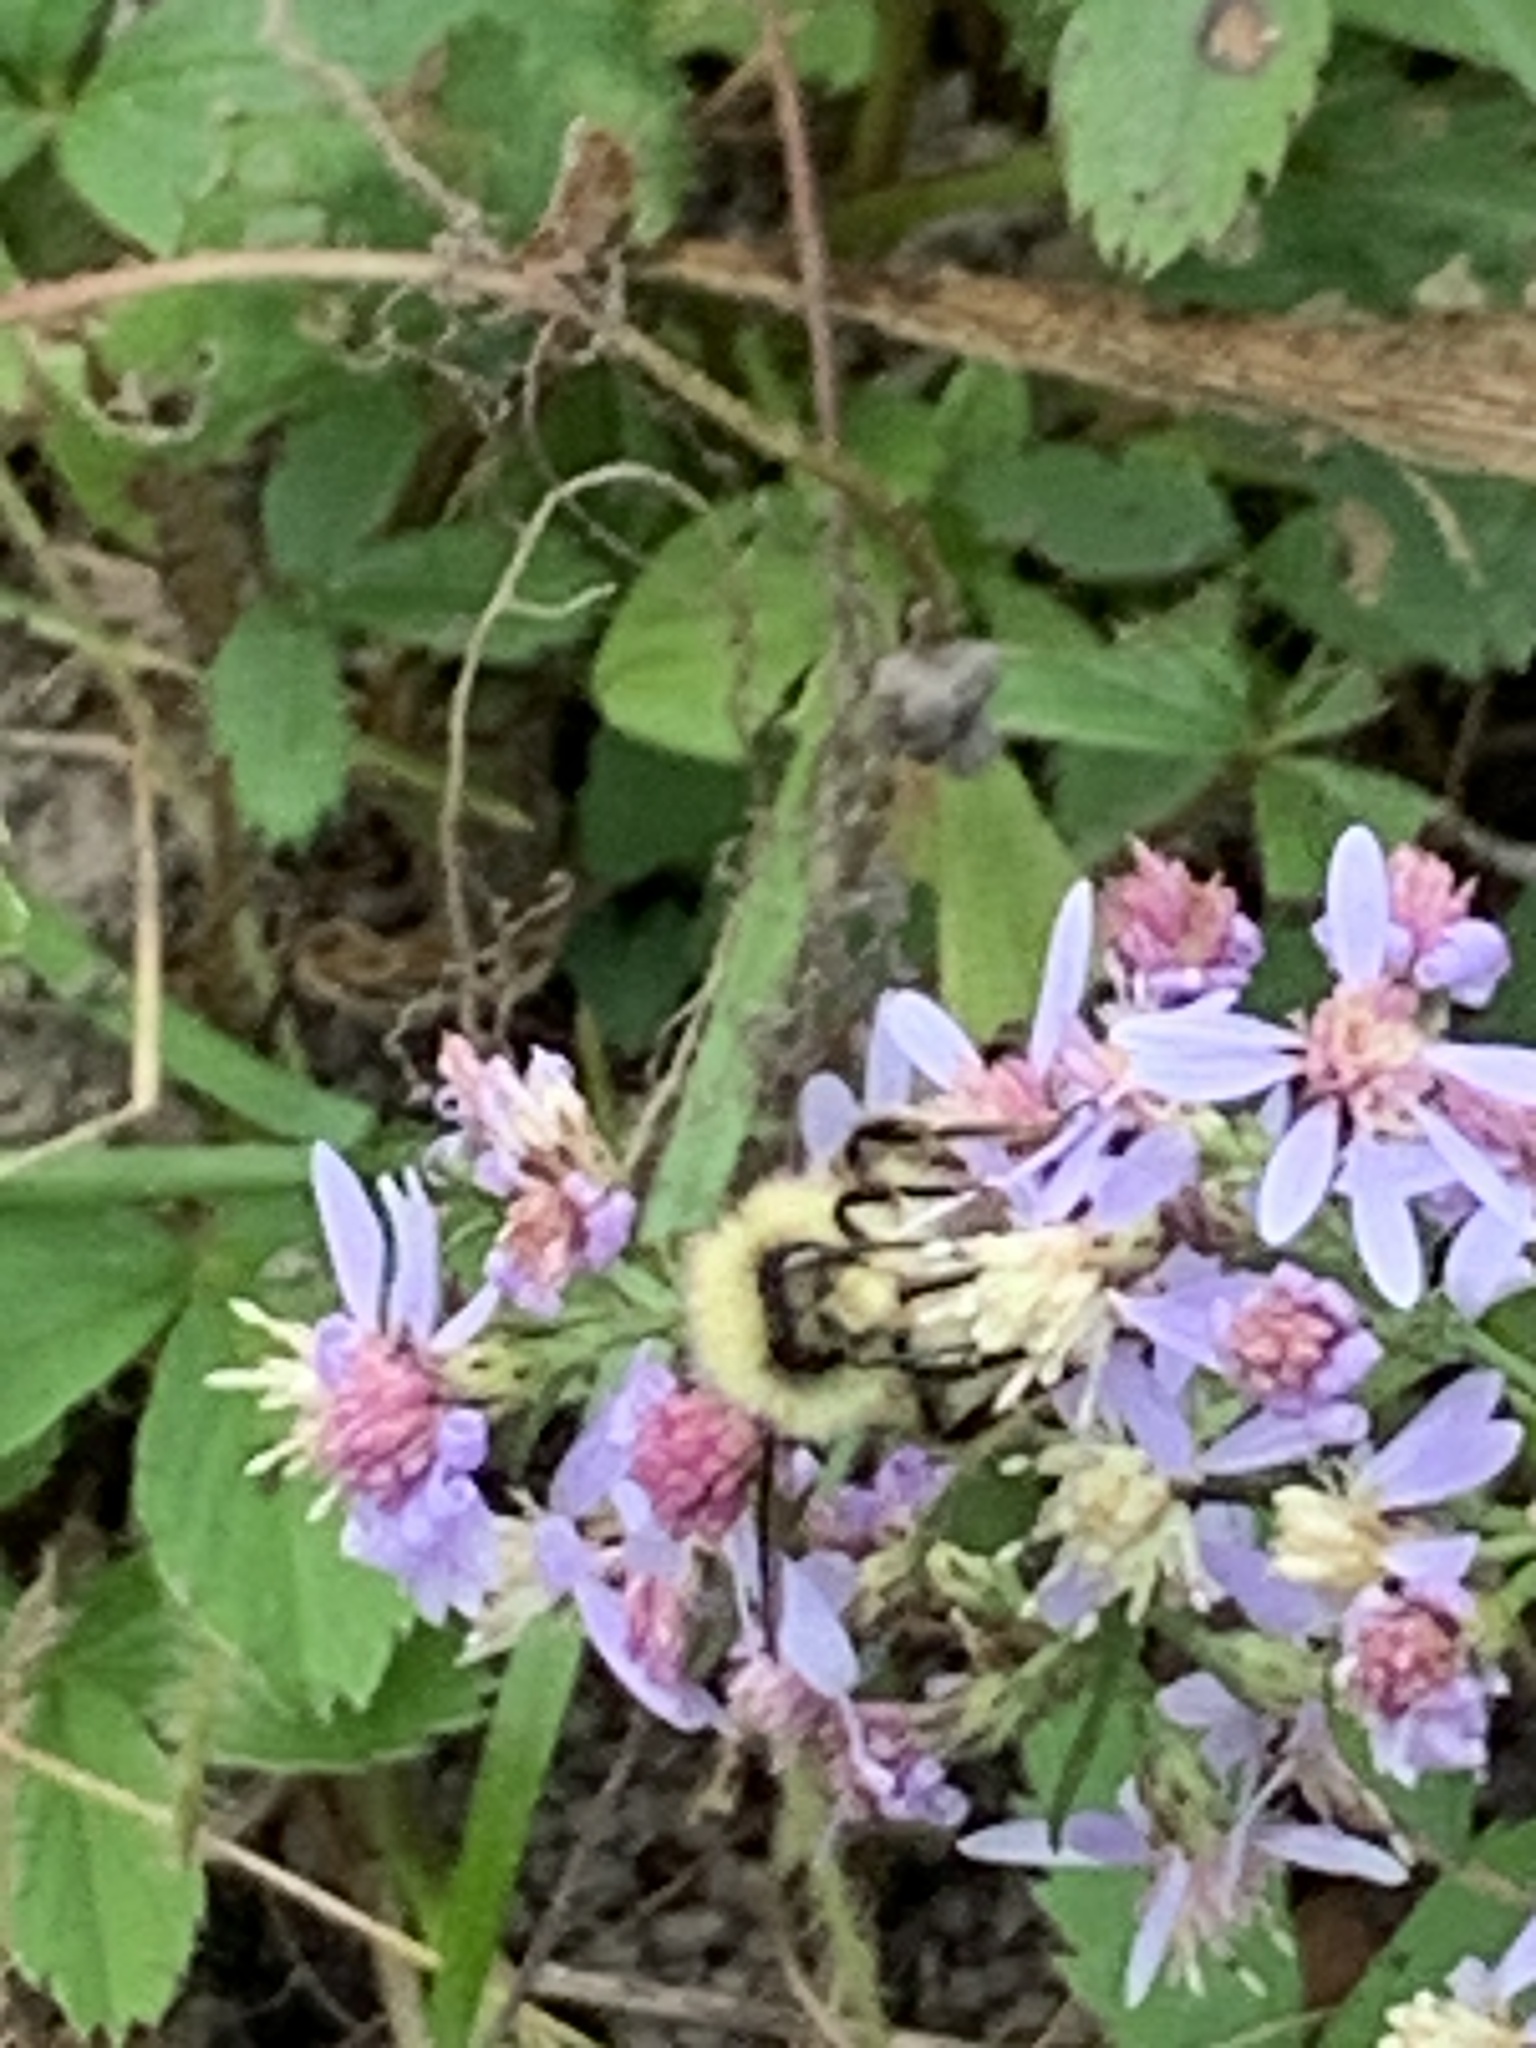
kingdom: Animalia
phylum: Arthropoda
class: Insecta
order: Hymenoptera
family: Apidae
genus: Bombus
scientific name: Bombus ternarius
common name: Tri-colored bumble bee
